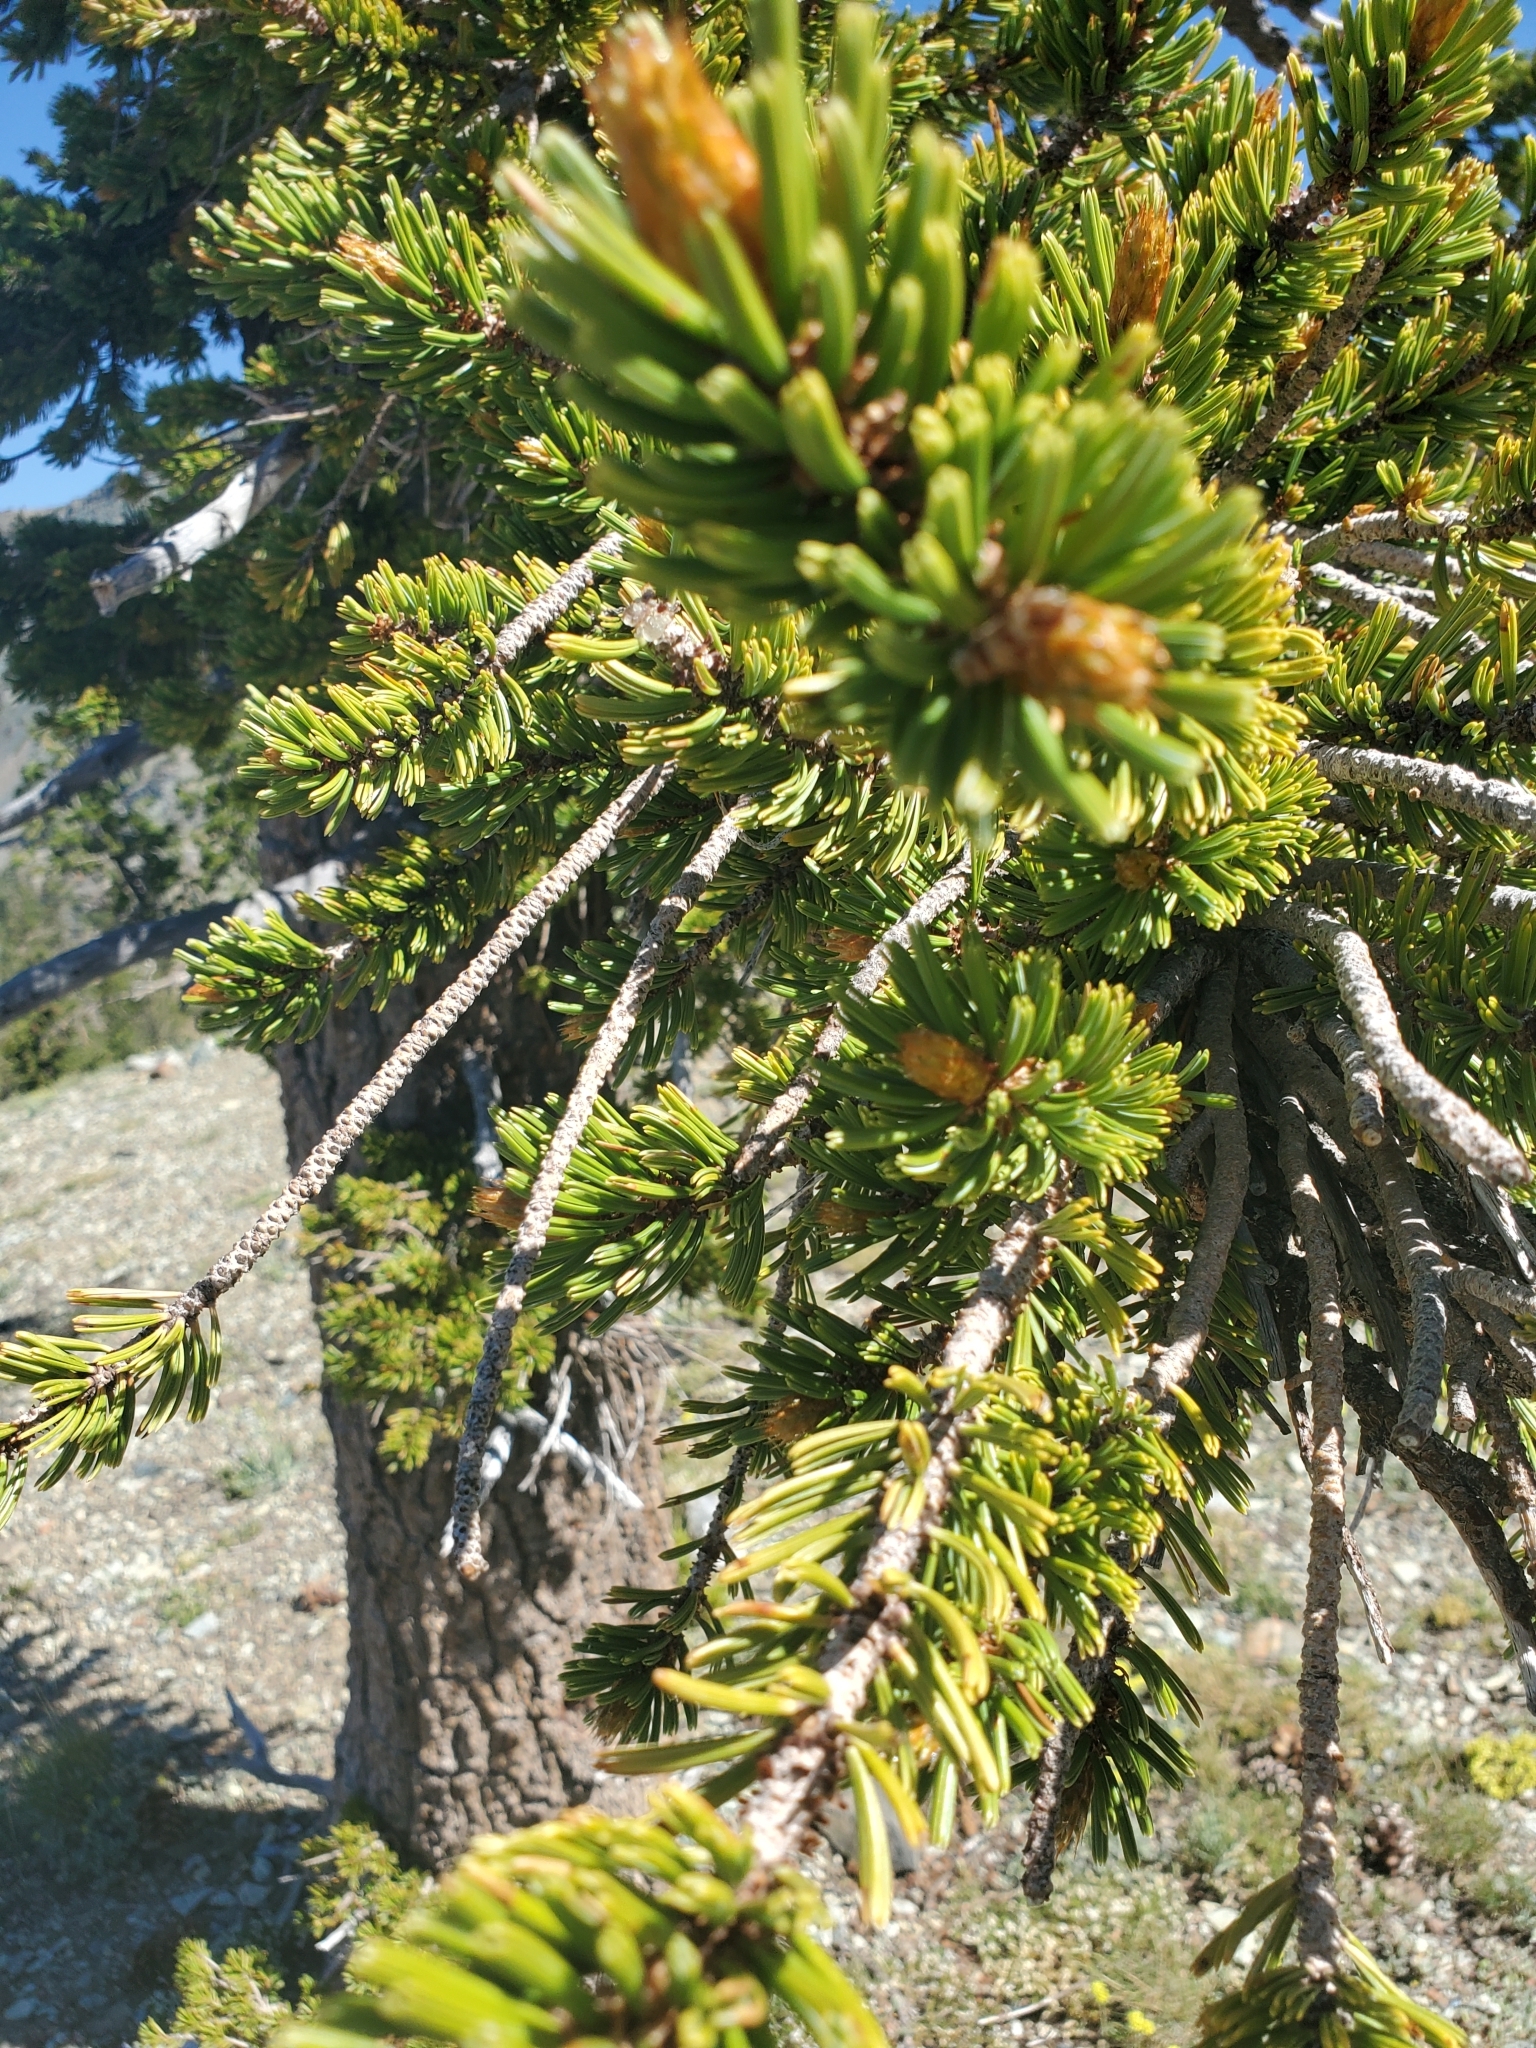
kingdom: Plantae
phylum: Tracheophyta
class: Pinopsida
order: Pinales
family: Pinaceae
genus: Pinus
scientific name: Pinus balfouriana
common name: Foxtail pine
